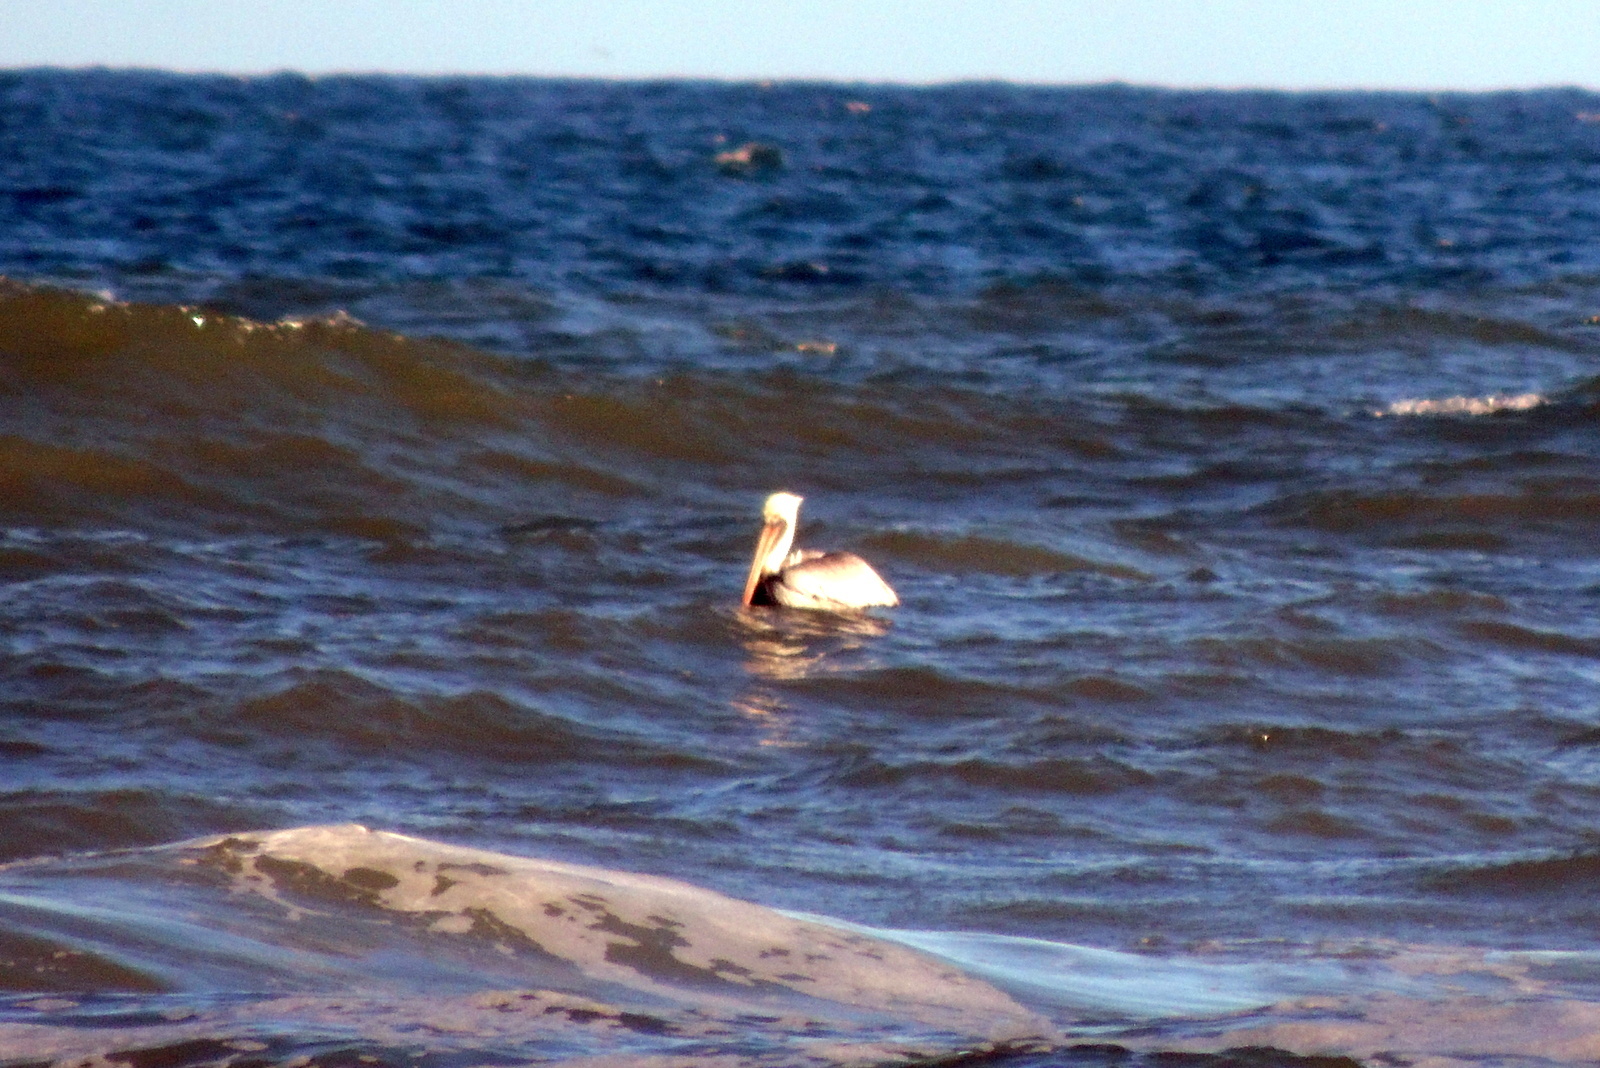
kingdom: Animalia
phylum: Chordata
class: Aves
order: Pelecaniformes
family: Pelecanidae
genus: Pelecanus
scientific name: Pelecanus occidentalis
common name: Brown pelican
